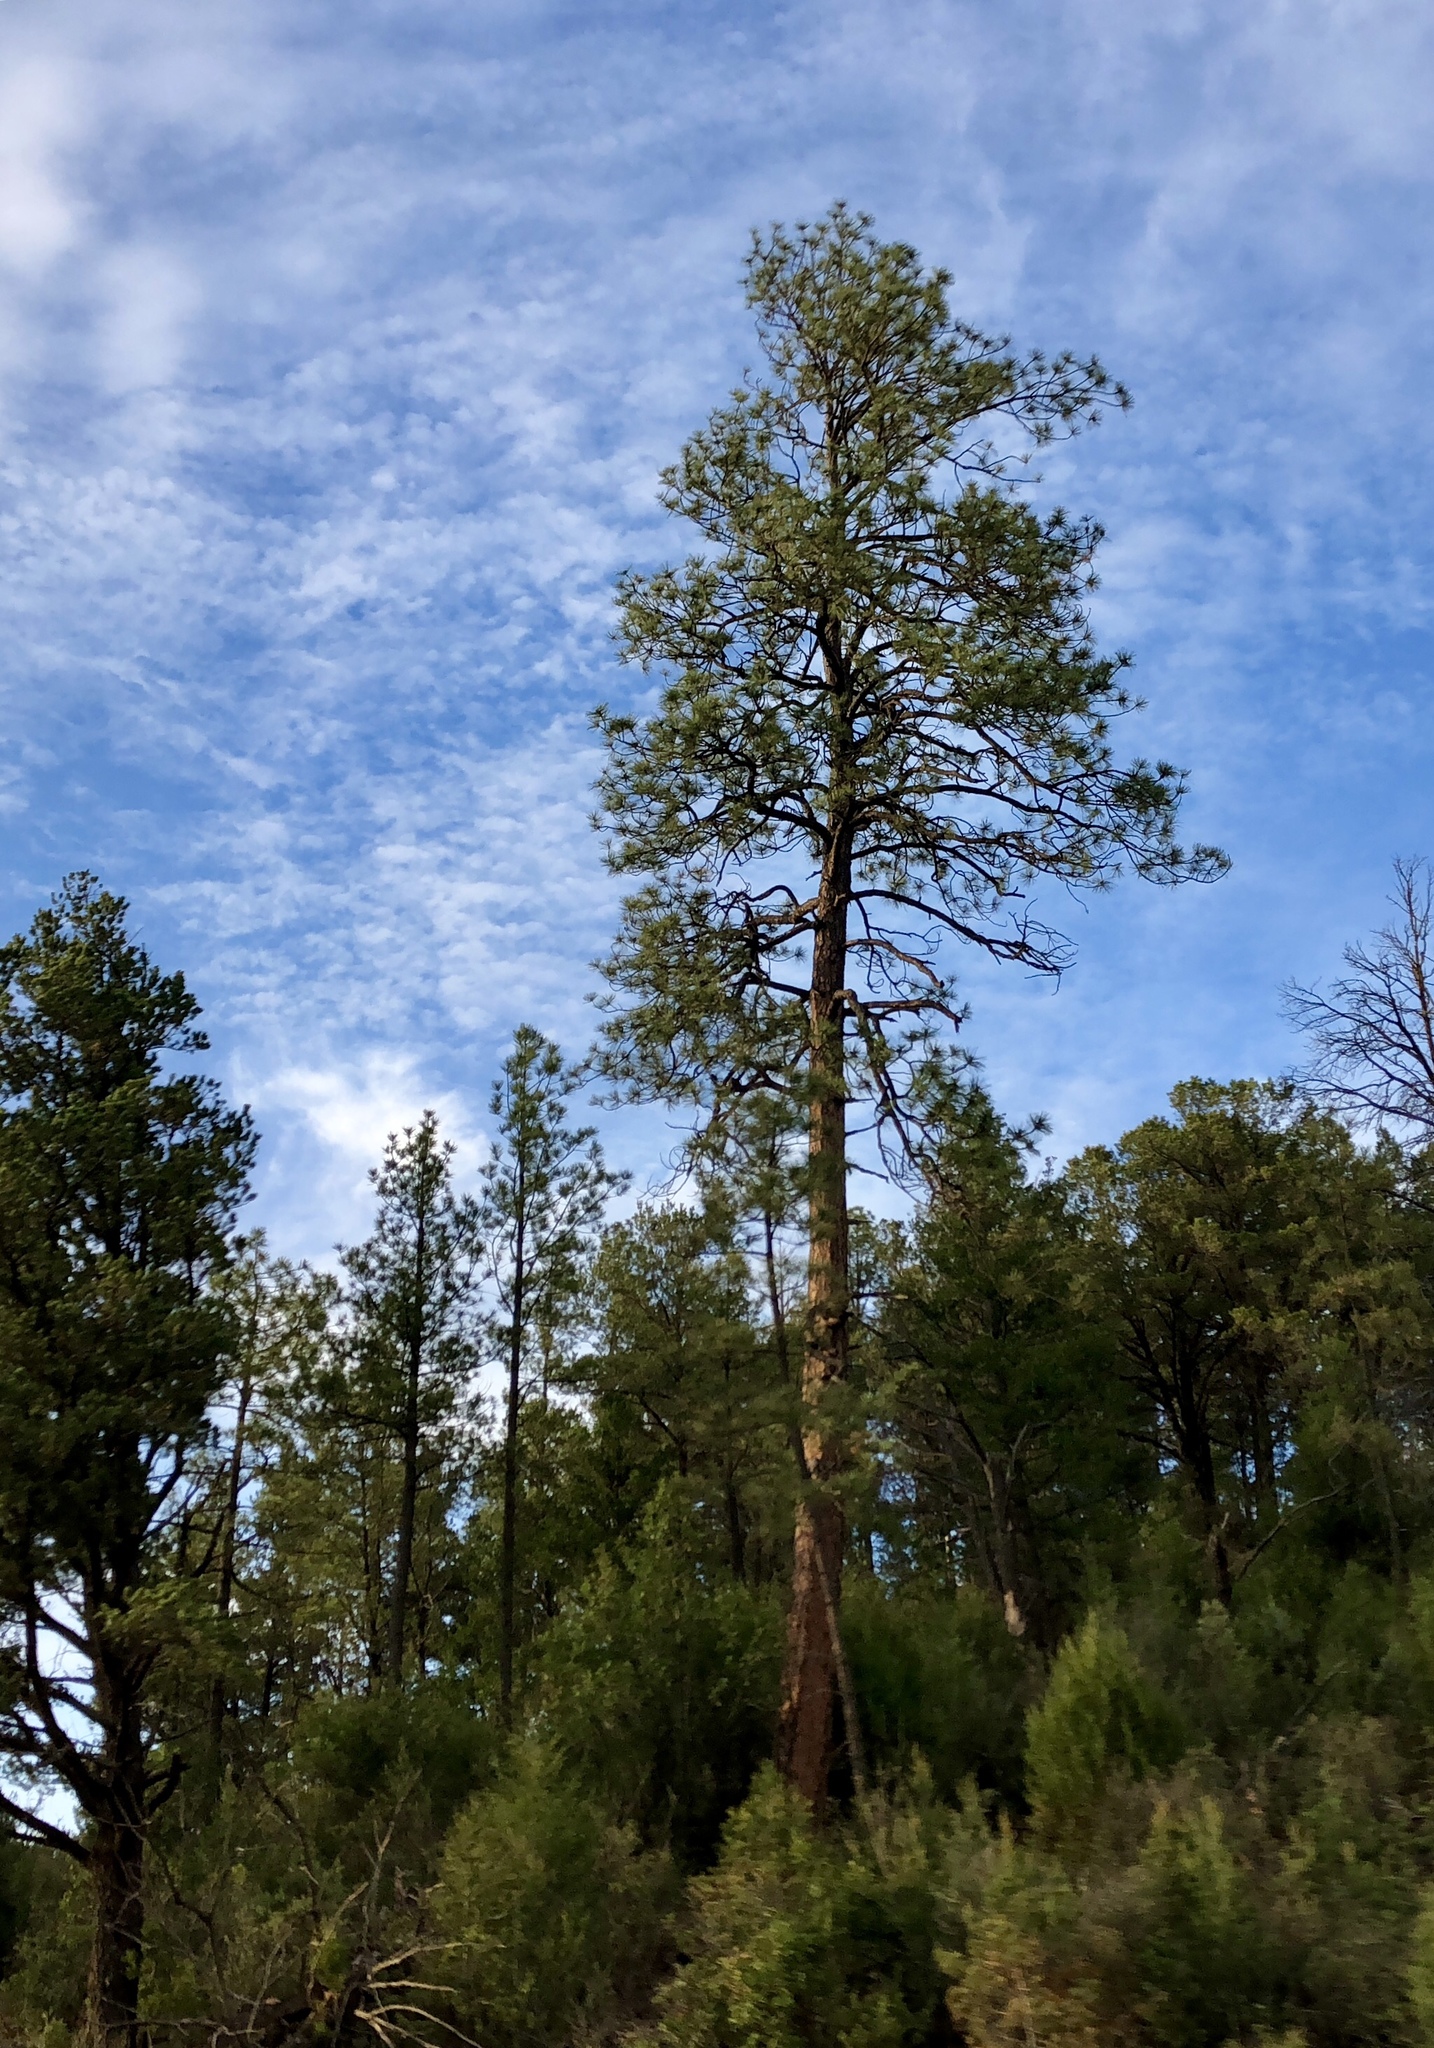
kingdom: Plantae
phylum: Tracheophyta
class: Pinopsida
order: Pinales
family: Pinaceae
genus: Pinus
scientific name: Pinus ponderosa
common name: Western yellow-pine
